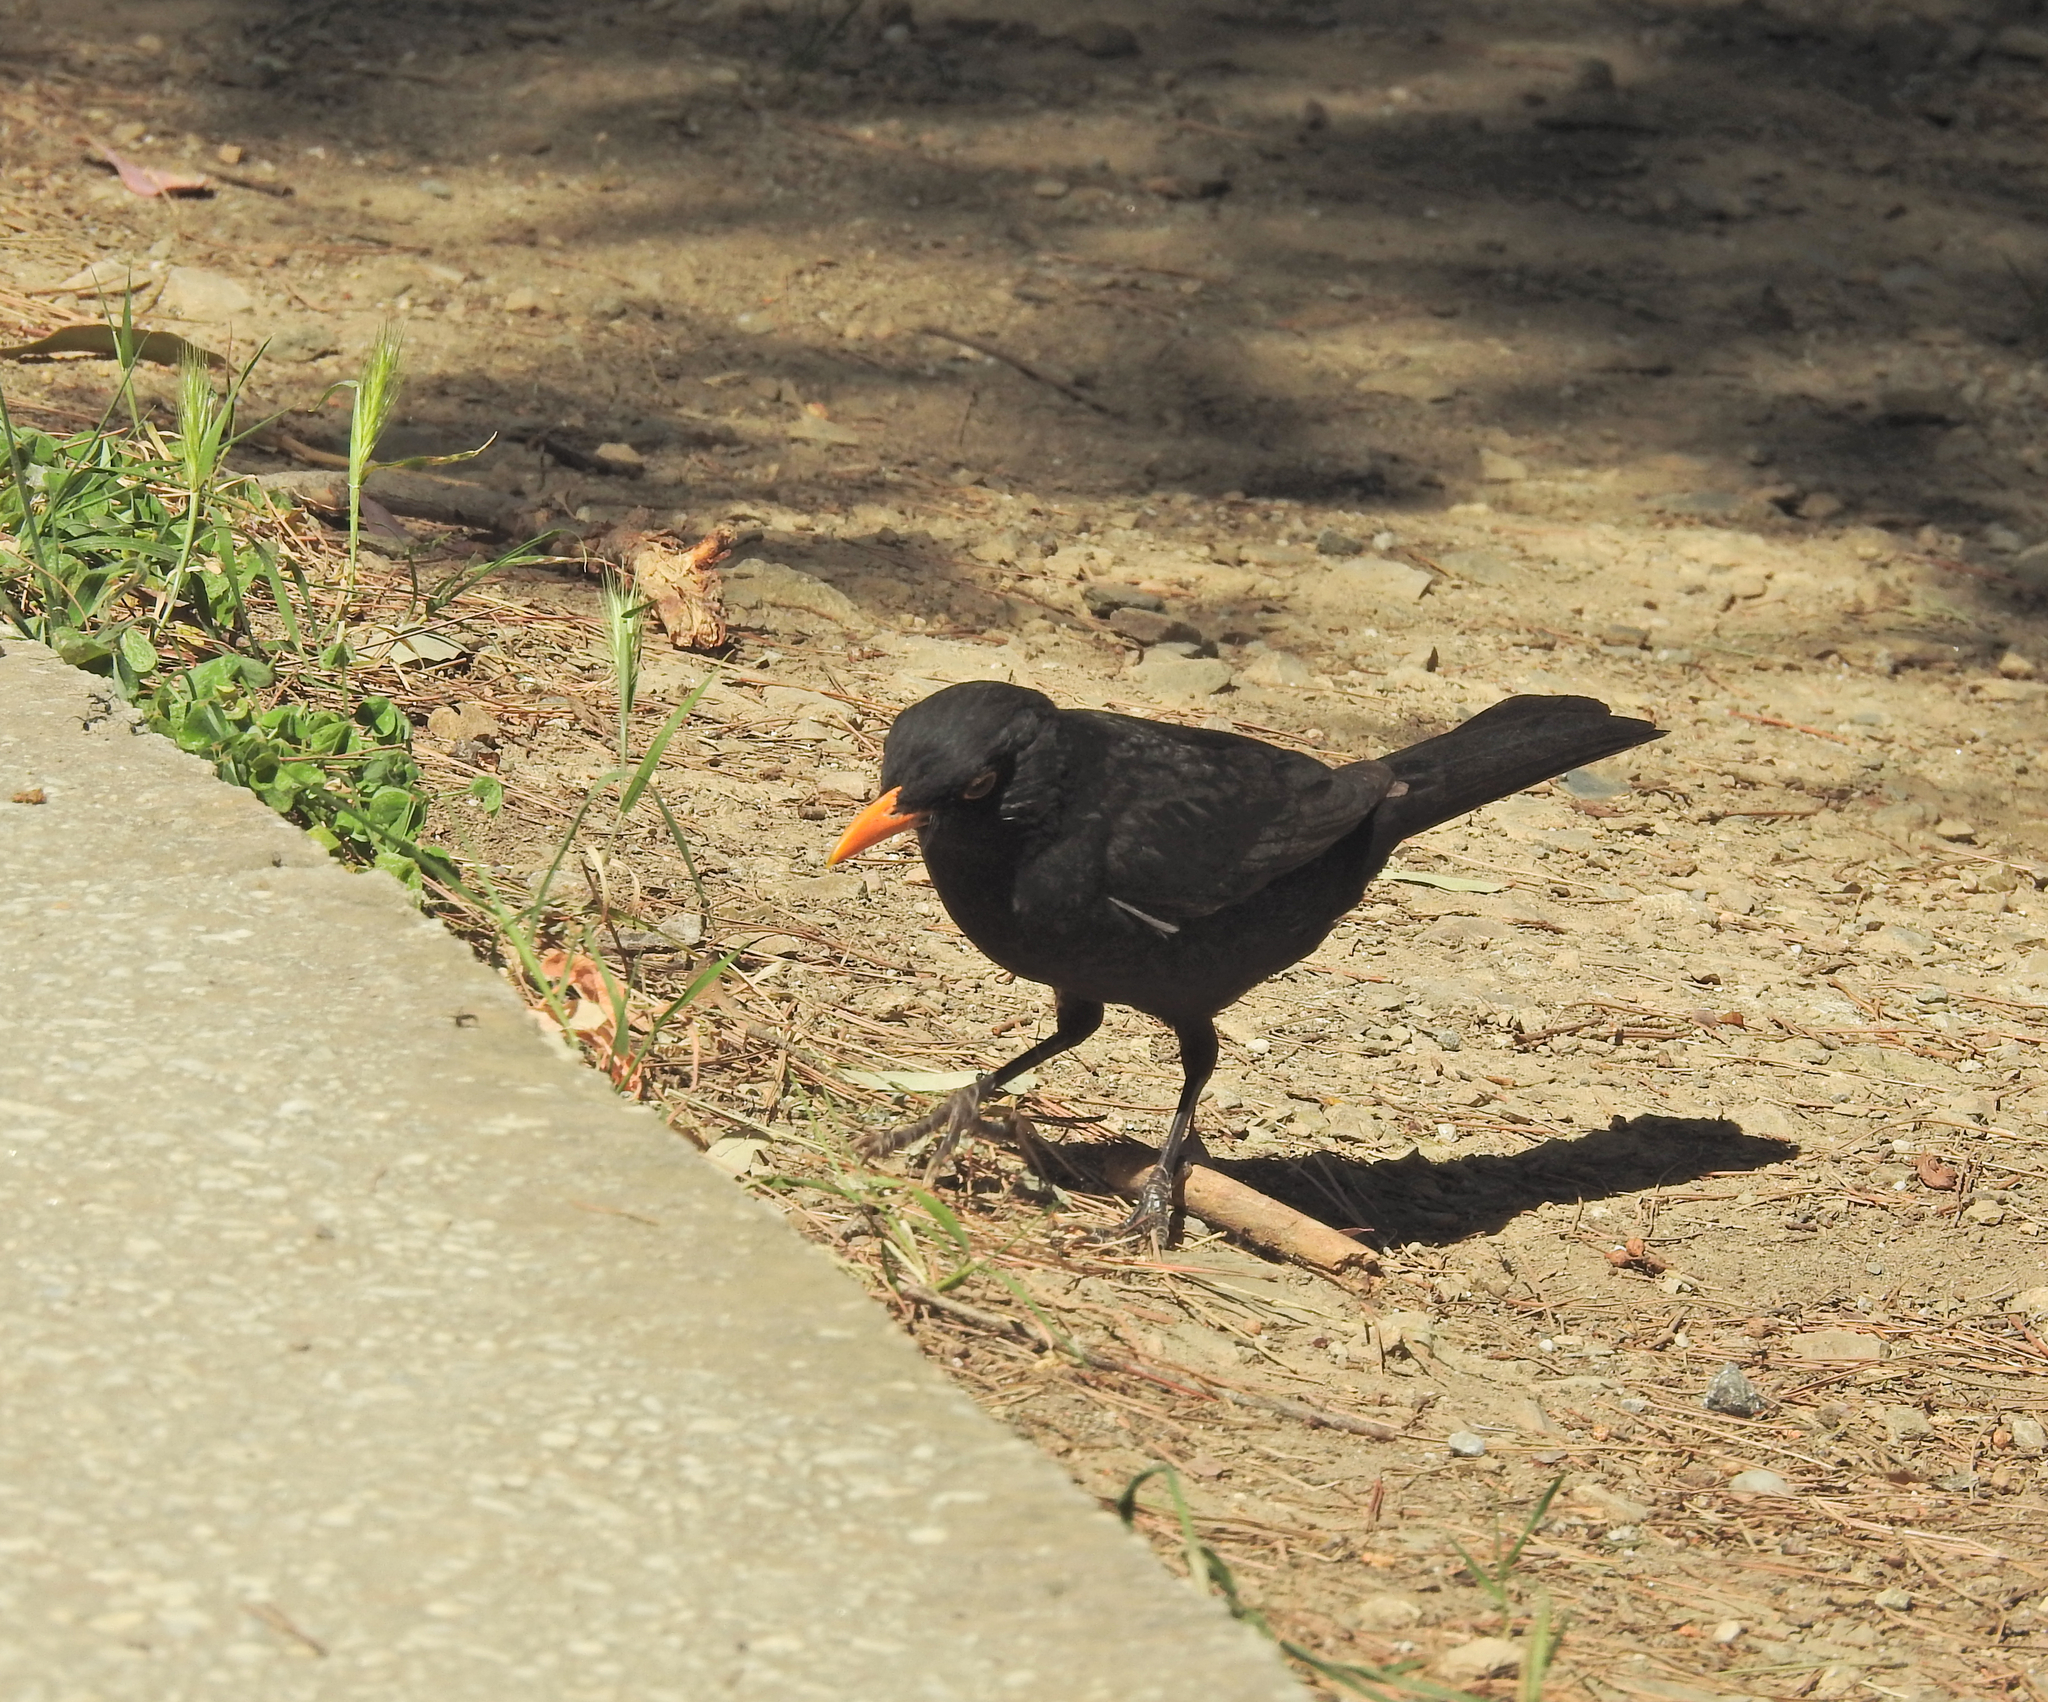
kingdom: Animalia
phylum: Chordata
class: Aves
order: Passeriformes
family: Turdidae
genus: Turdus
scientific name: Turdus merula
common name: Common blackbird
